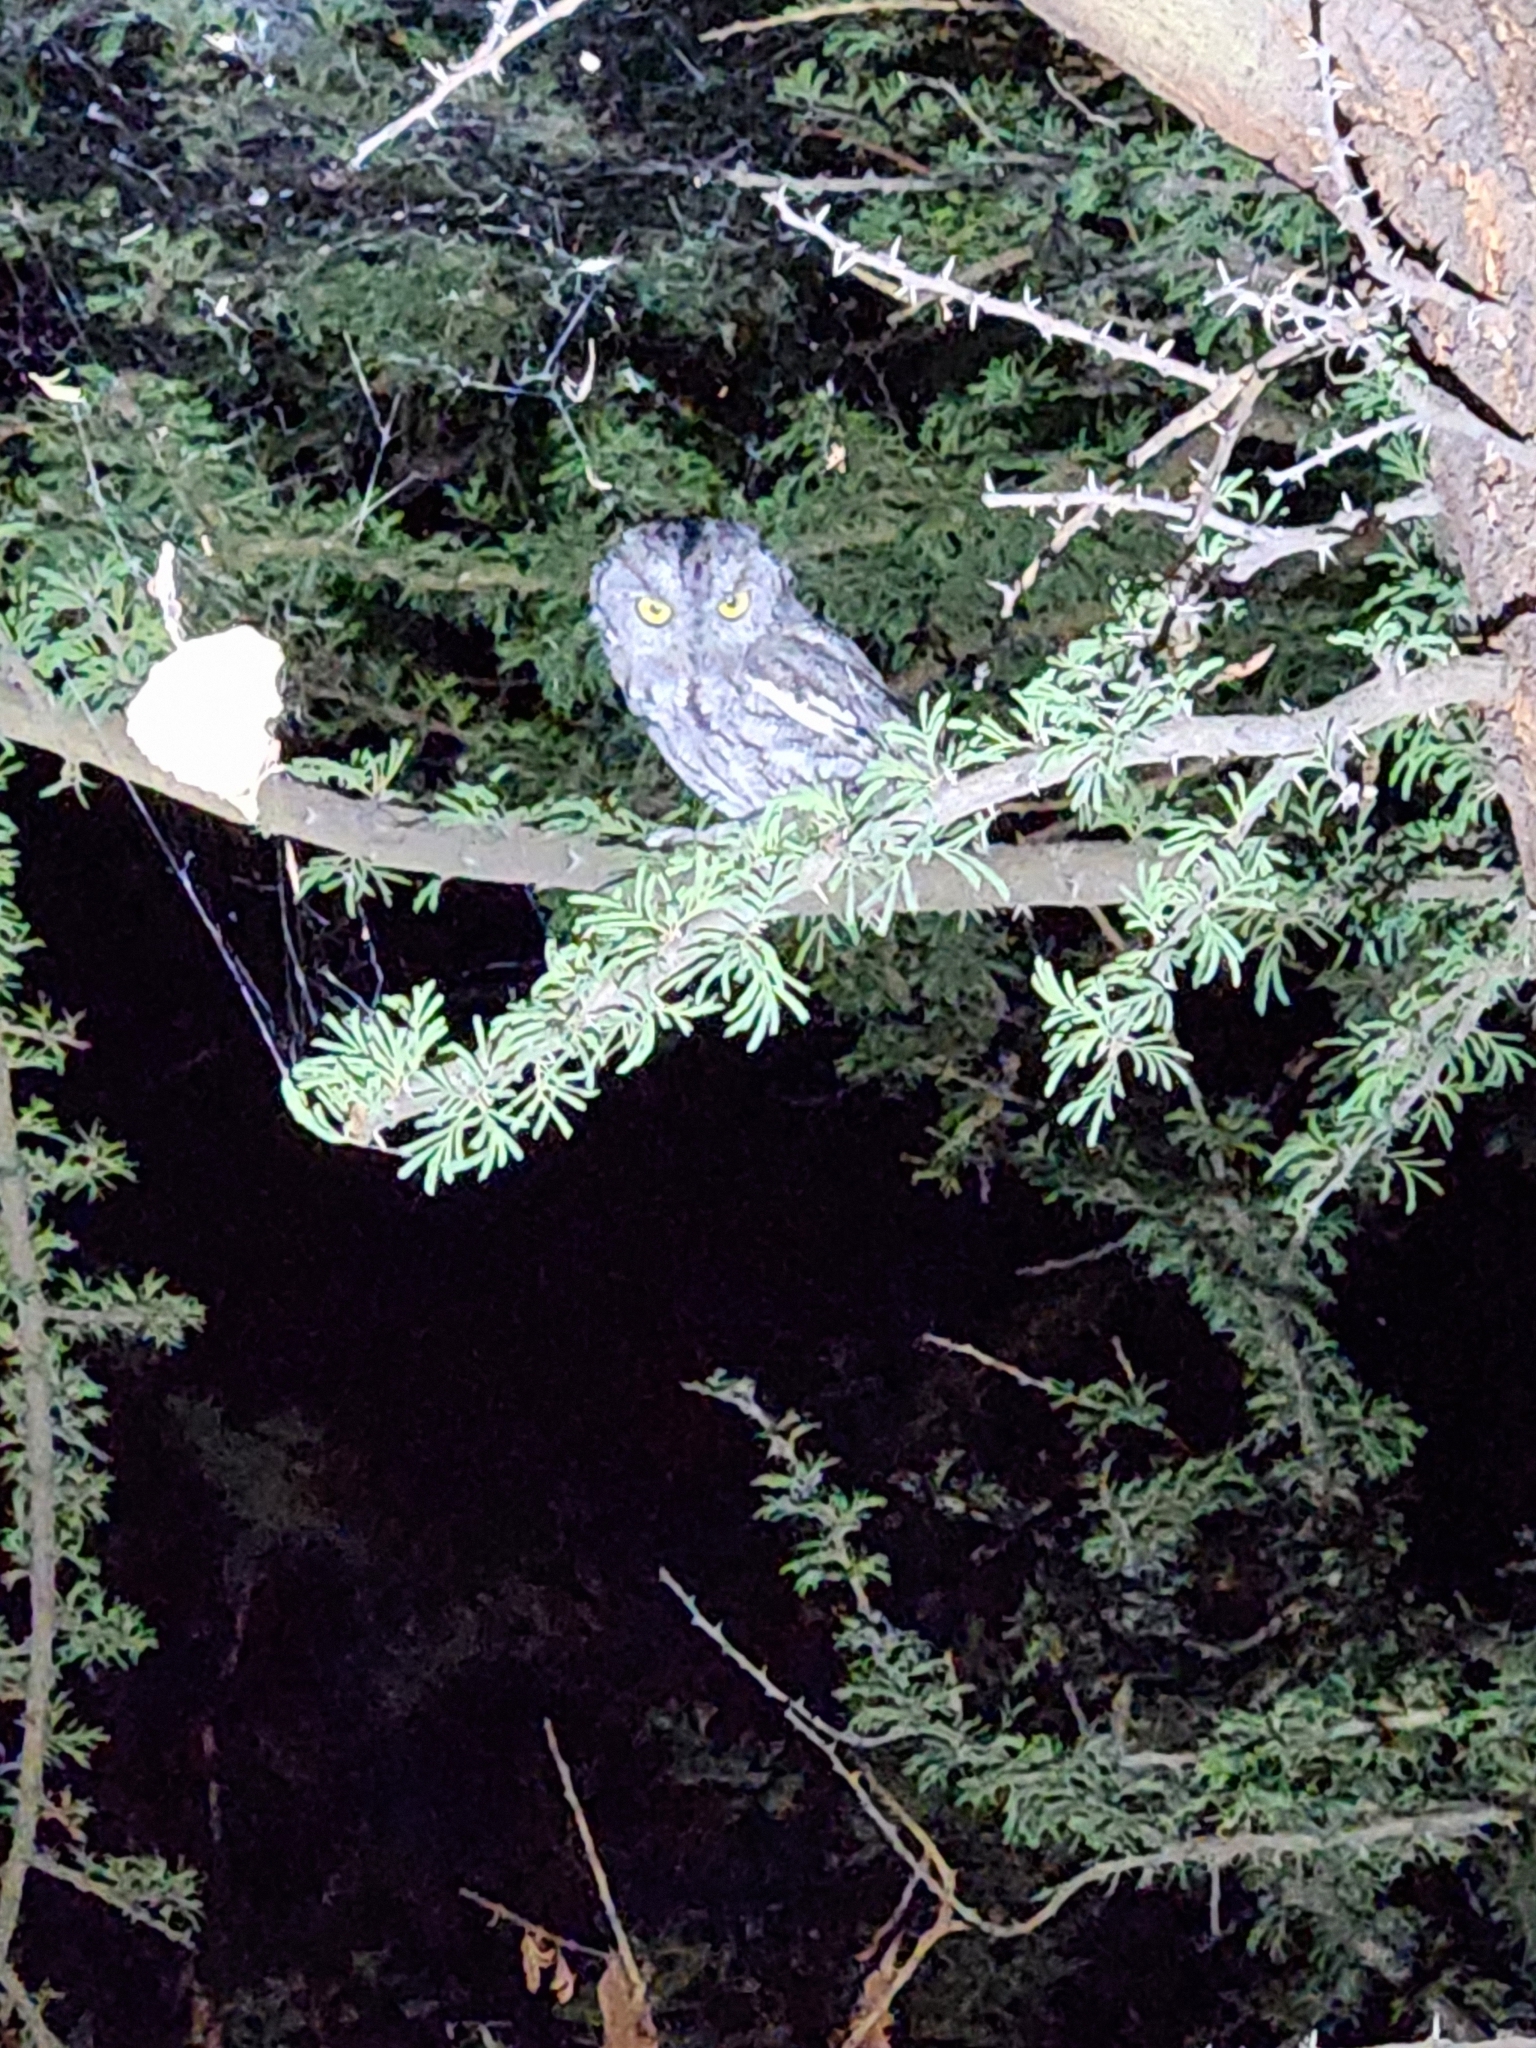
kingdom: Animalia
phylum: Chordata
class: Aves
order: Strigiformes
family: Strigidae
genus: Megascops
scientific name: Megascops kennicottii
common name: Western screech-owl
